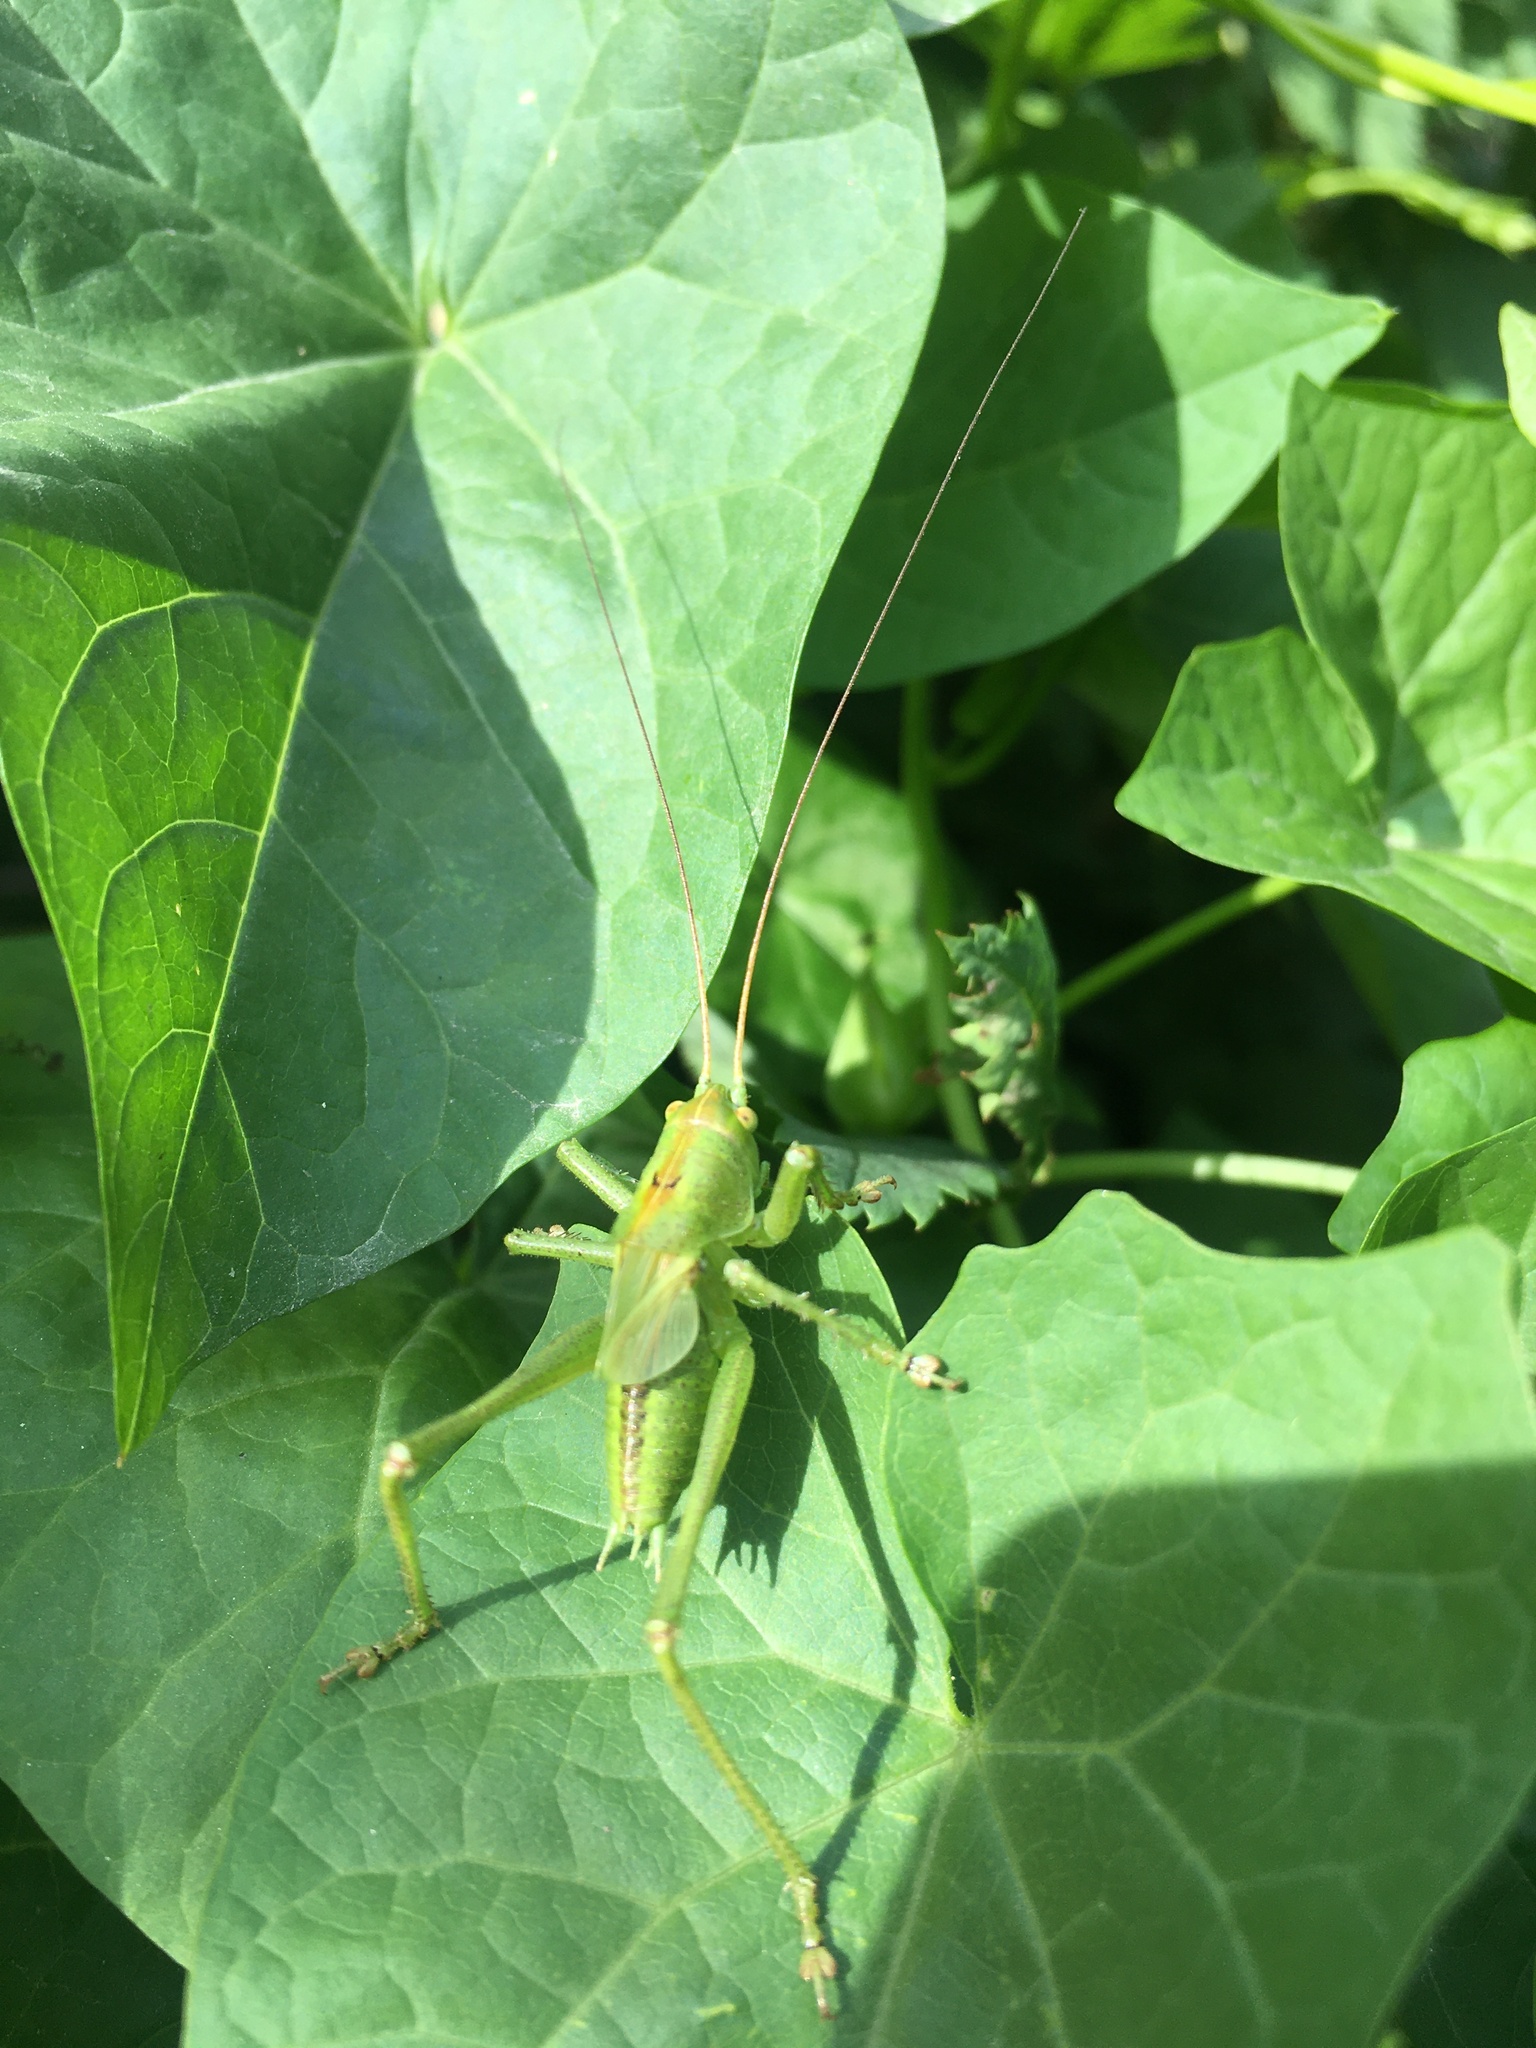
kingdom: Animalia
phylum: Arthropoda
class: Insecta
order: Orthoptera
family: Tettigoniidae
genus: Tettigonia
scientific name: Tettigonia cantans
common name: Upland green bush-cricket
